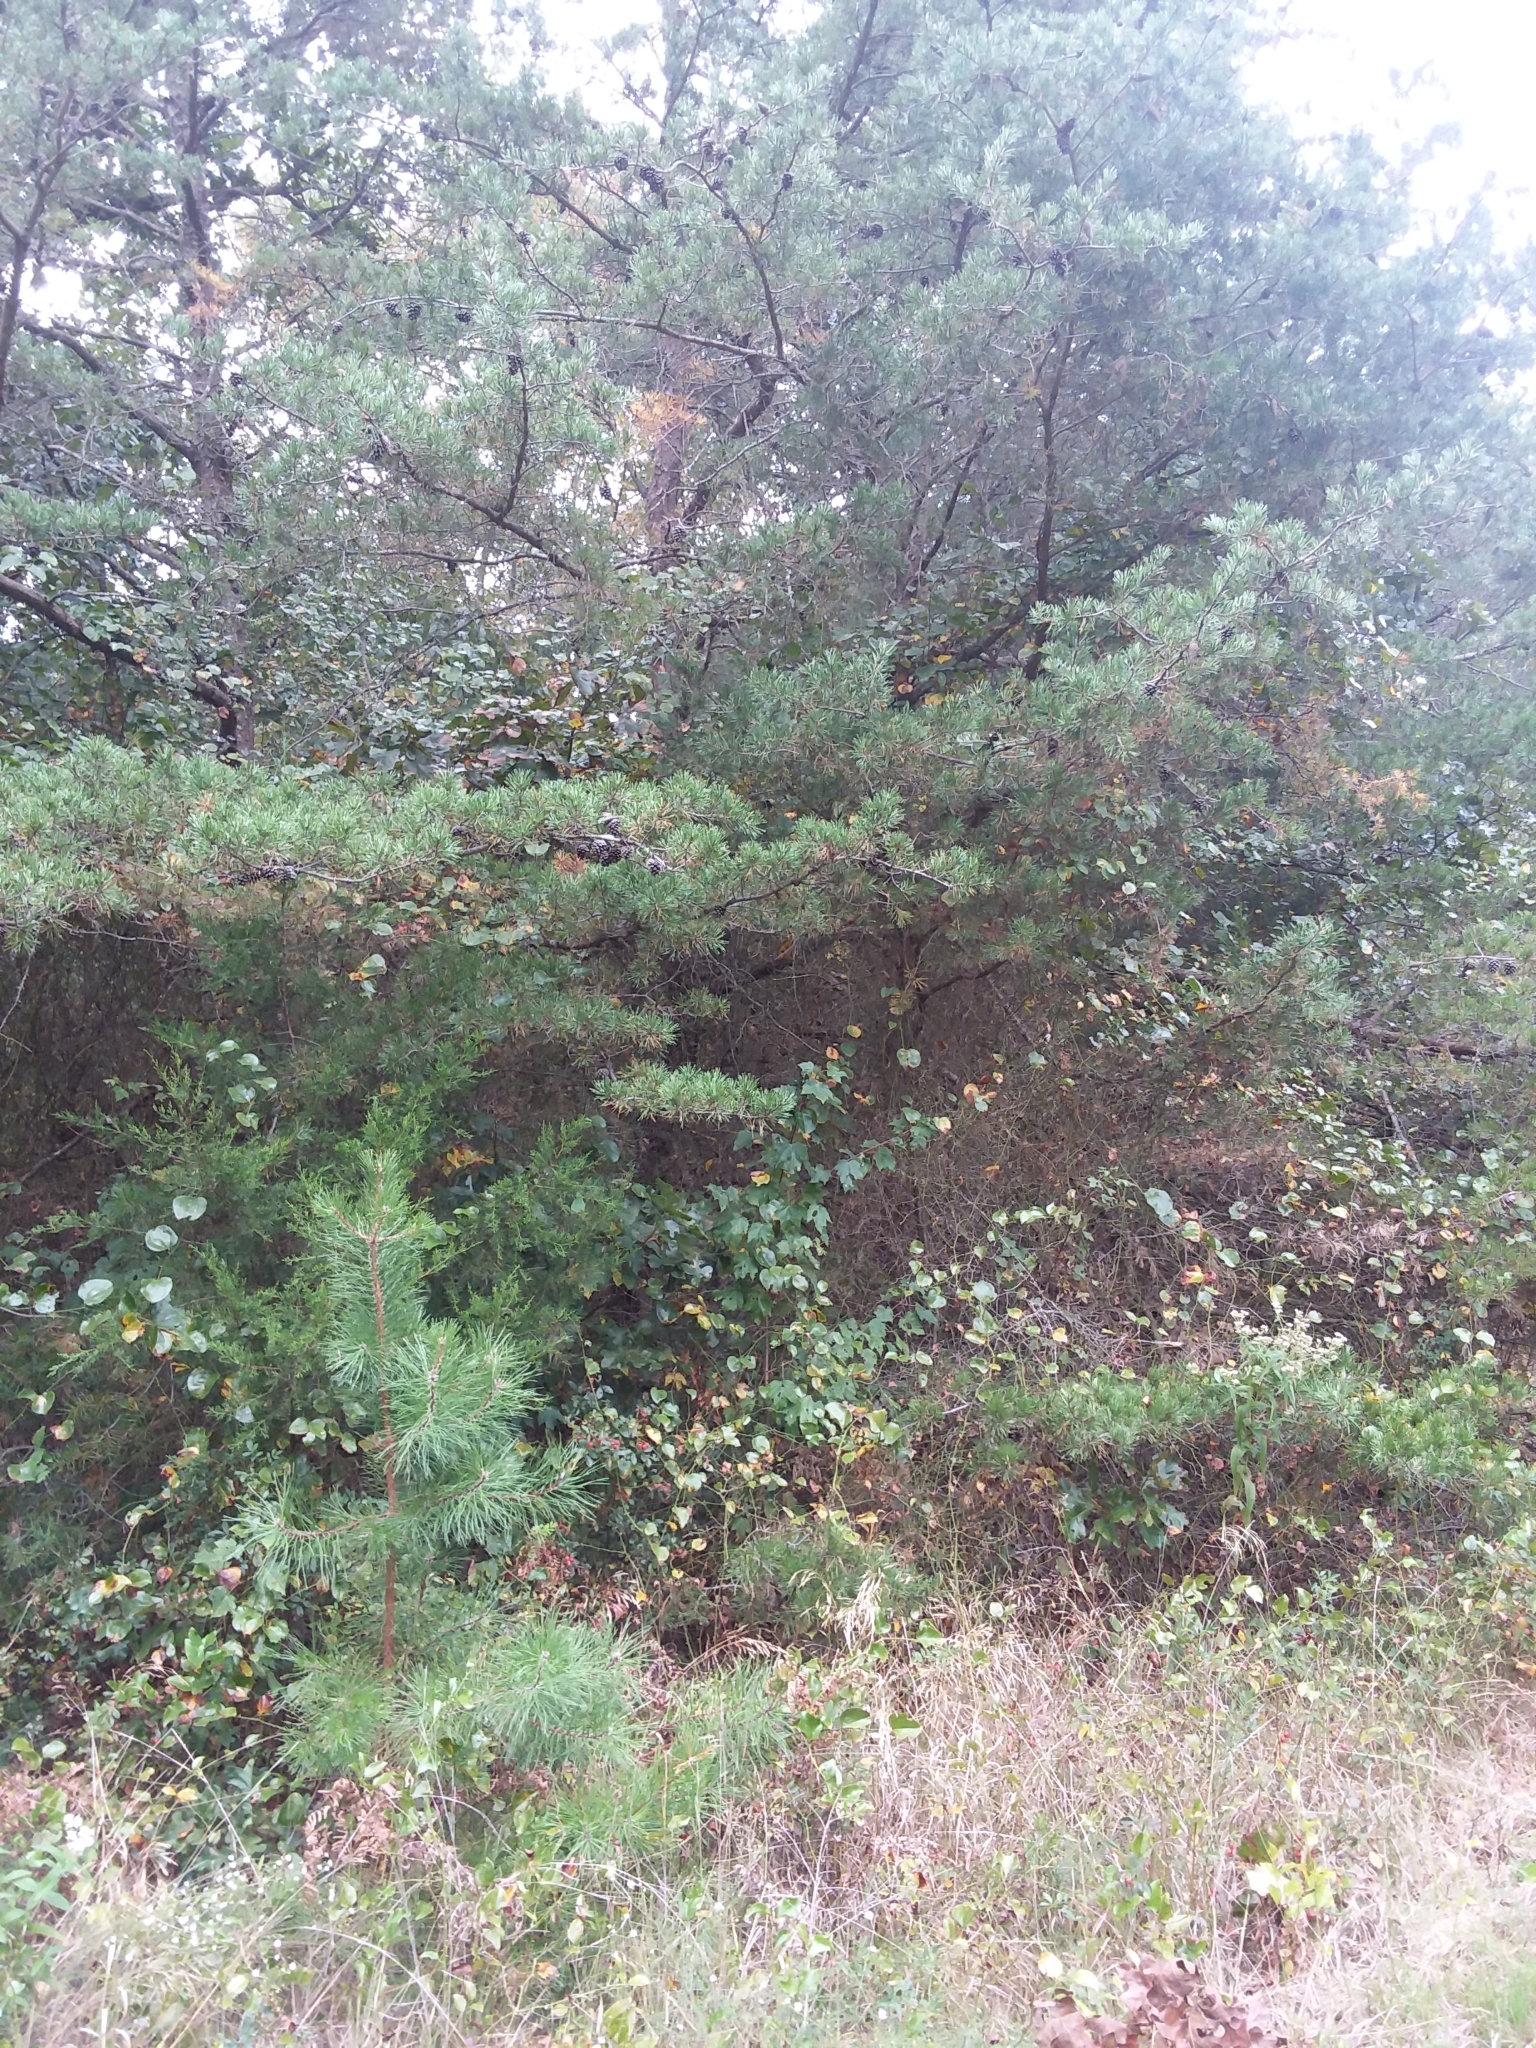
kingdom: Plantae
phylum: Tracheophyta
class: Pinopsida
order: Pinales
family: Pinaceae
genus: Pinus
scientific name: Pinus virginiana
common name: Scrub pine
